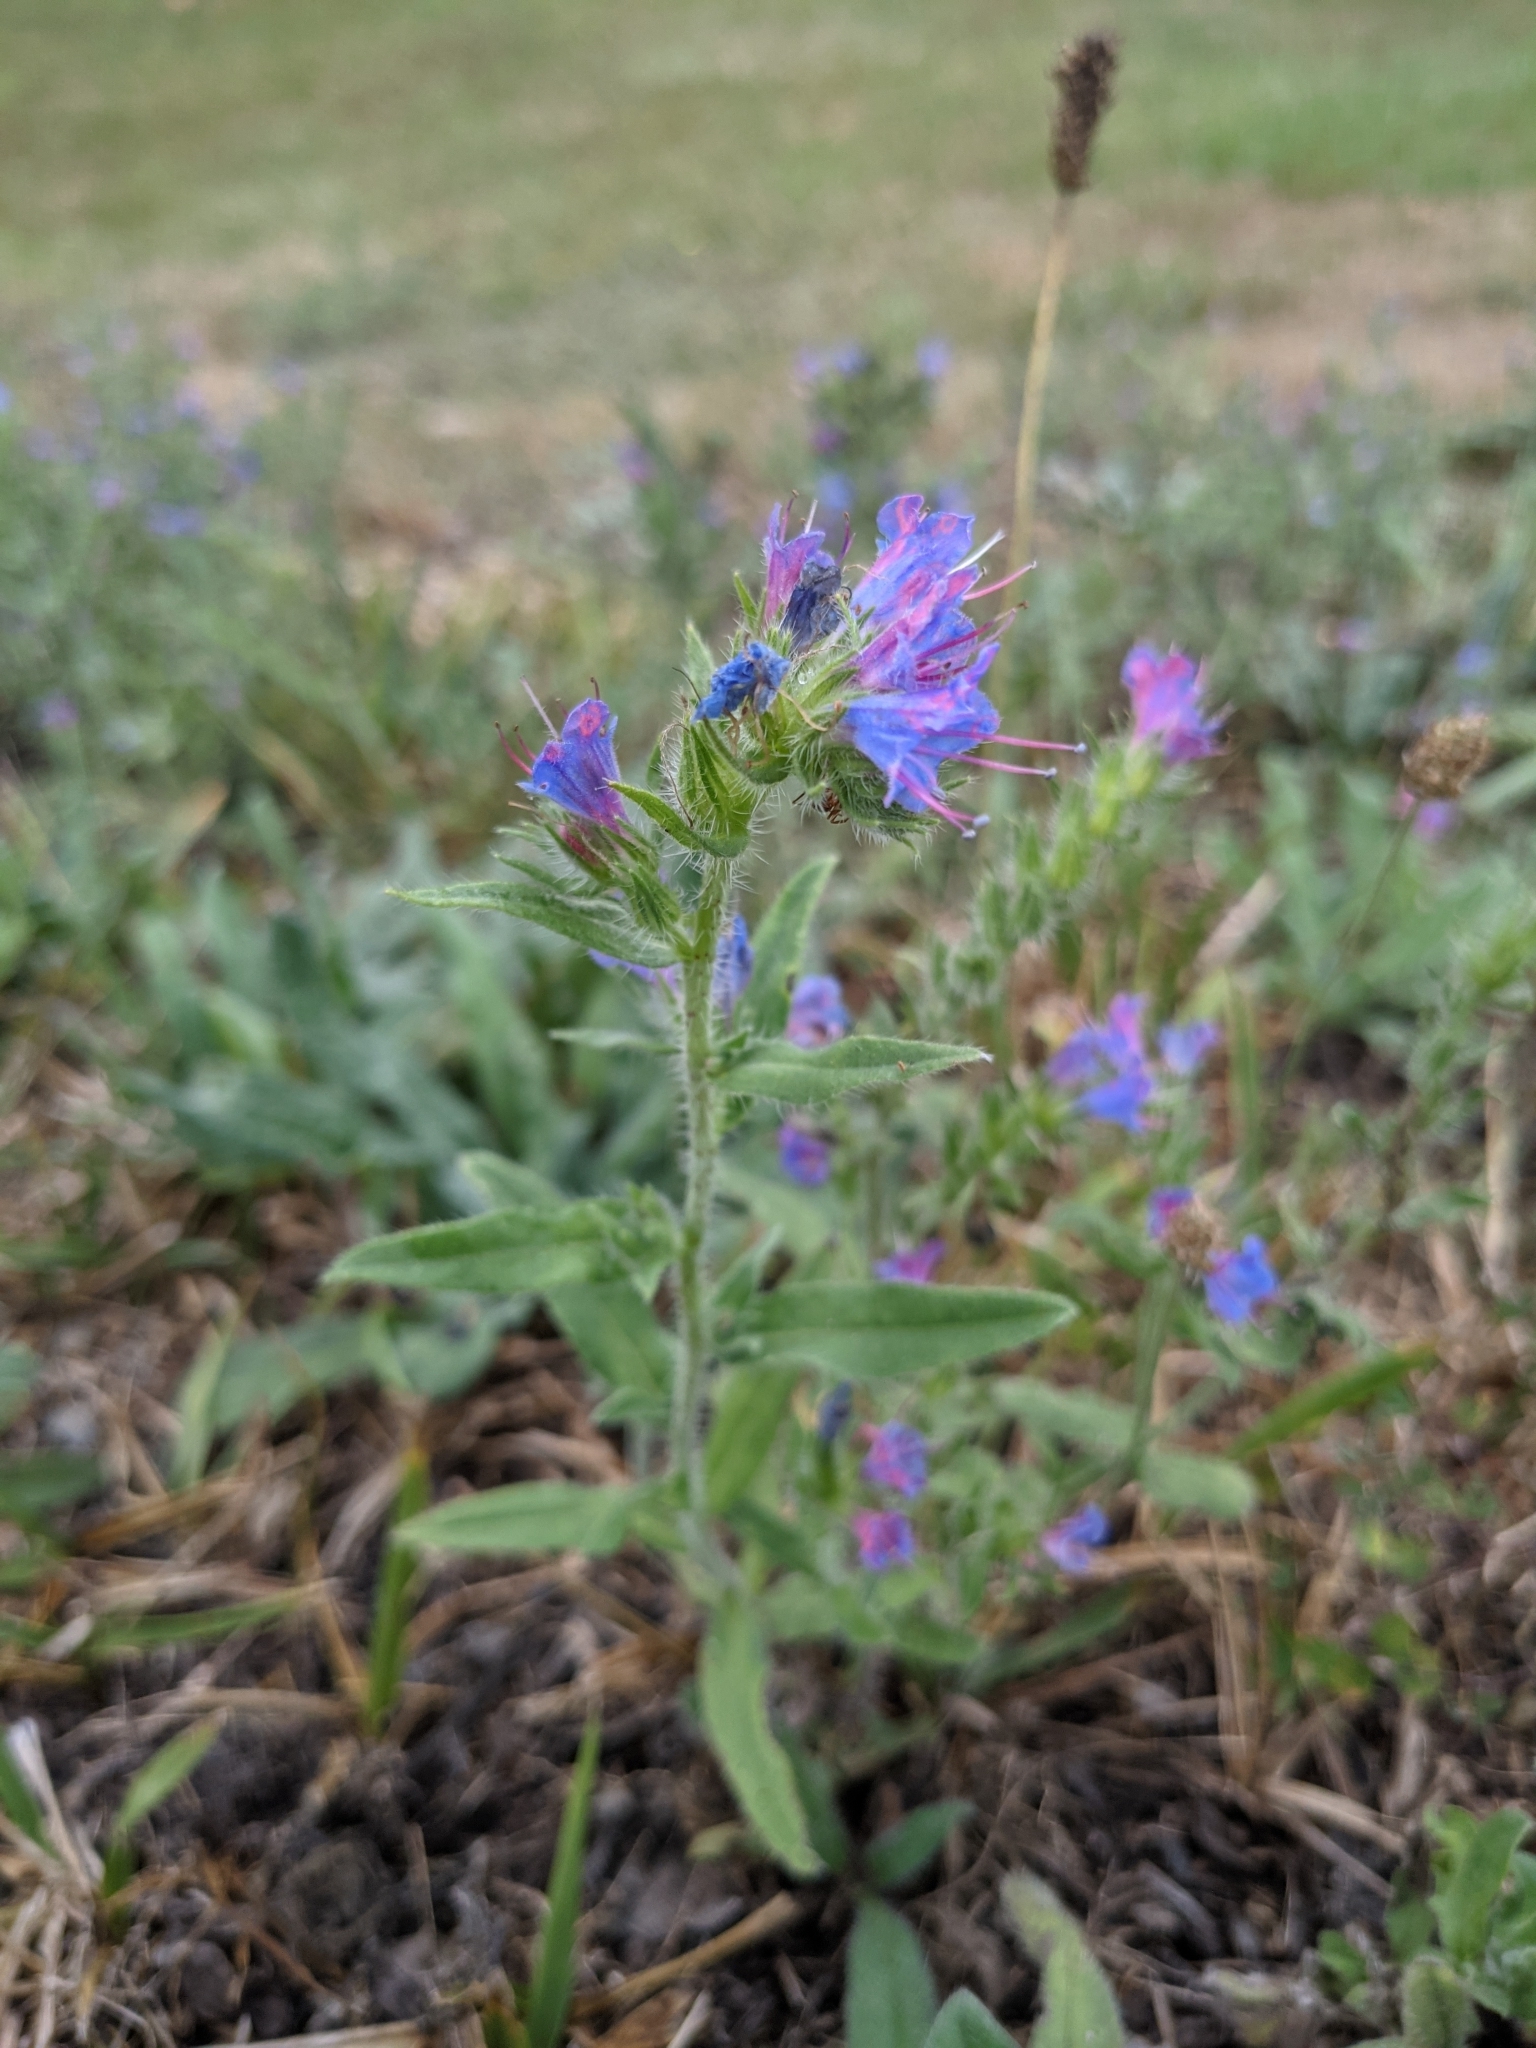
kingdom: Plantae
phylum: Tracheophyta
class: Magnoliopsida
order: Boraginales
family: Boraginaceae
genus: Echium
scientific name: Echium vulgare
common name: Common viper's bugloss
